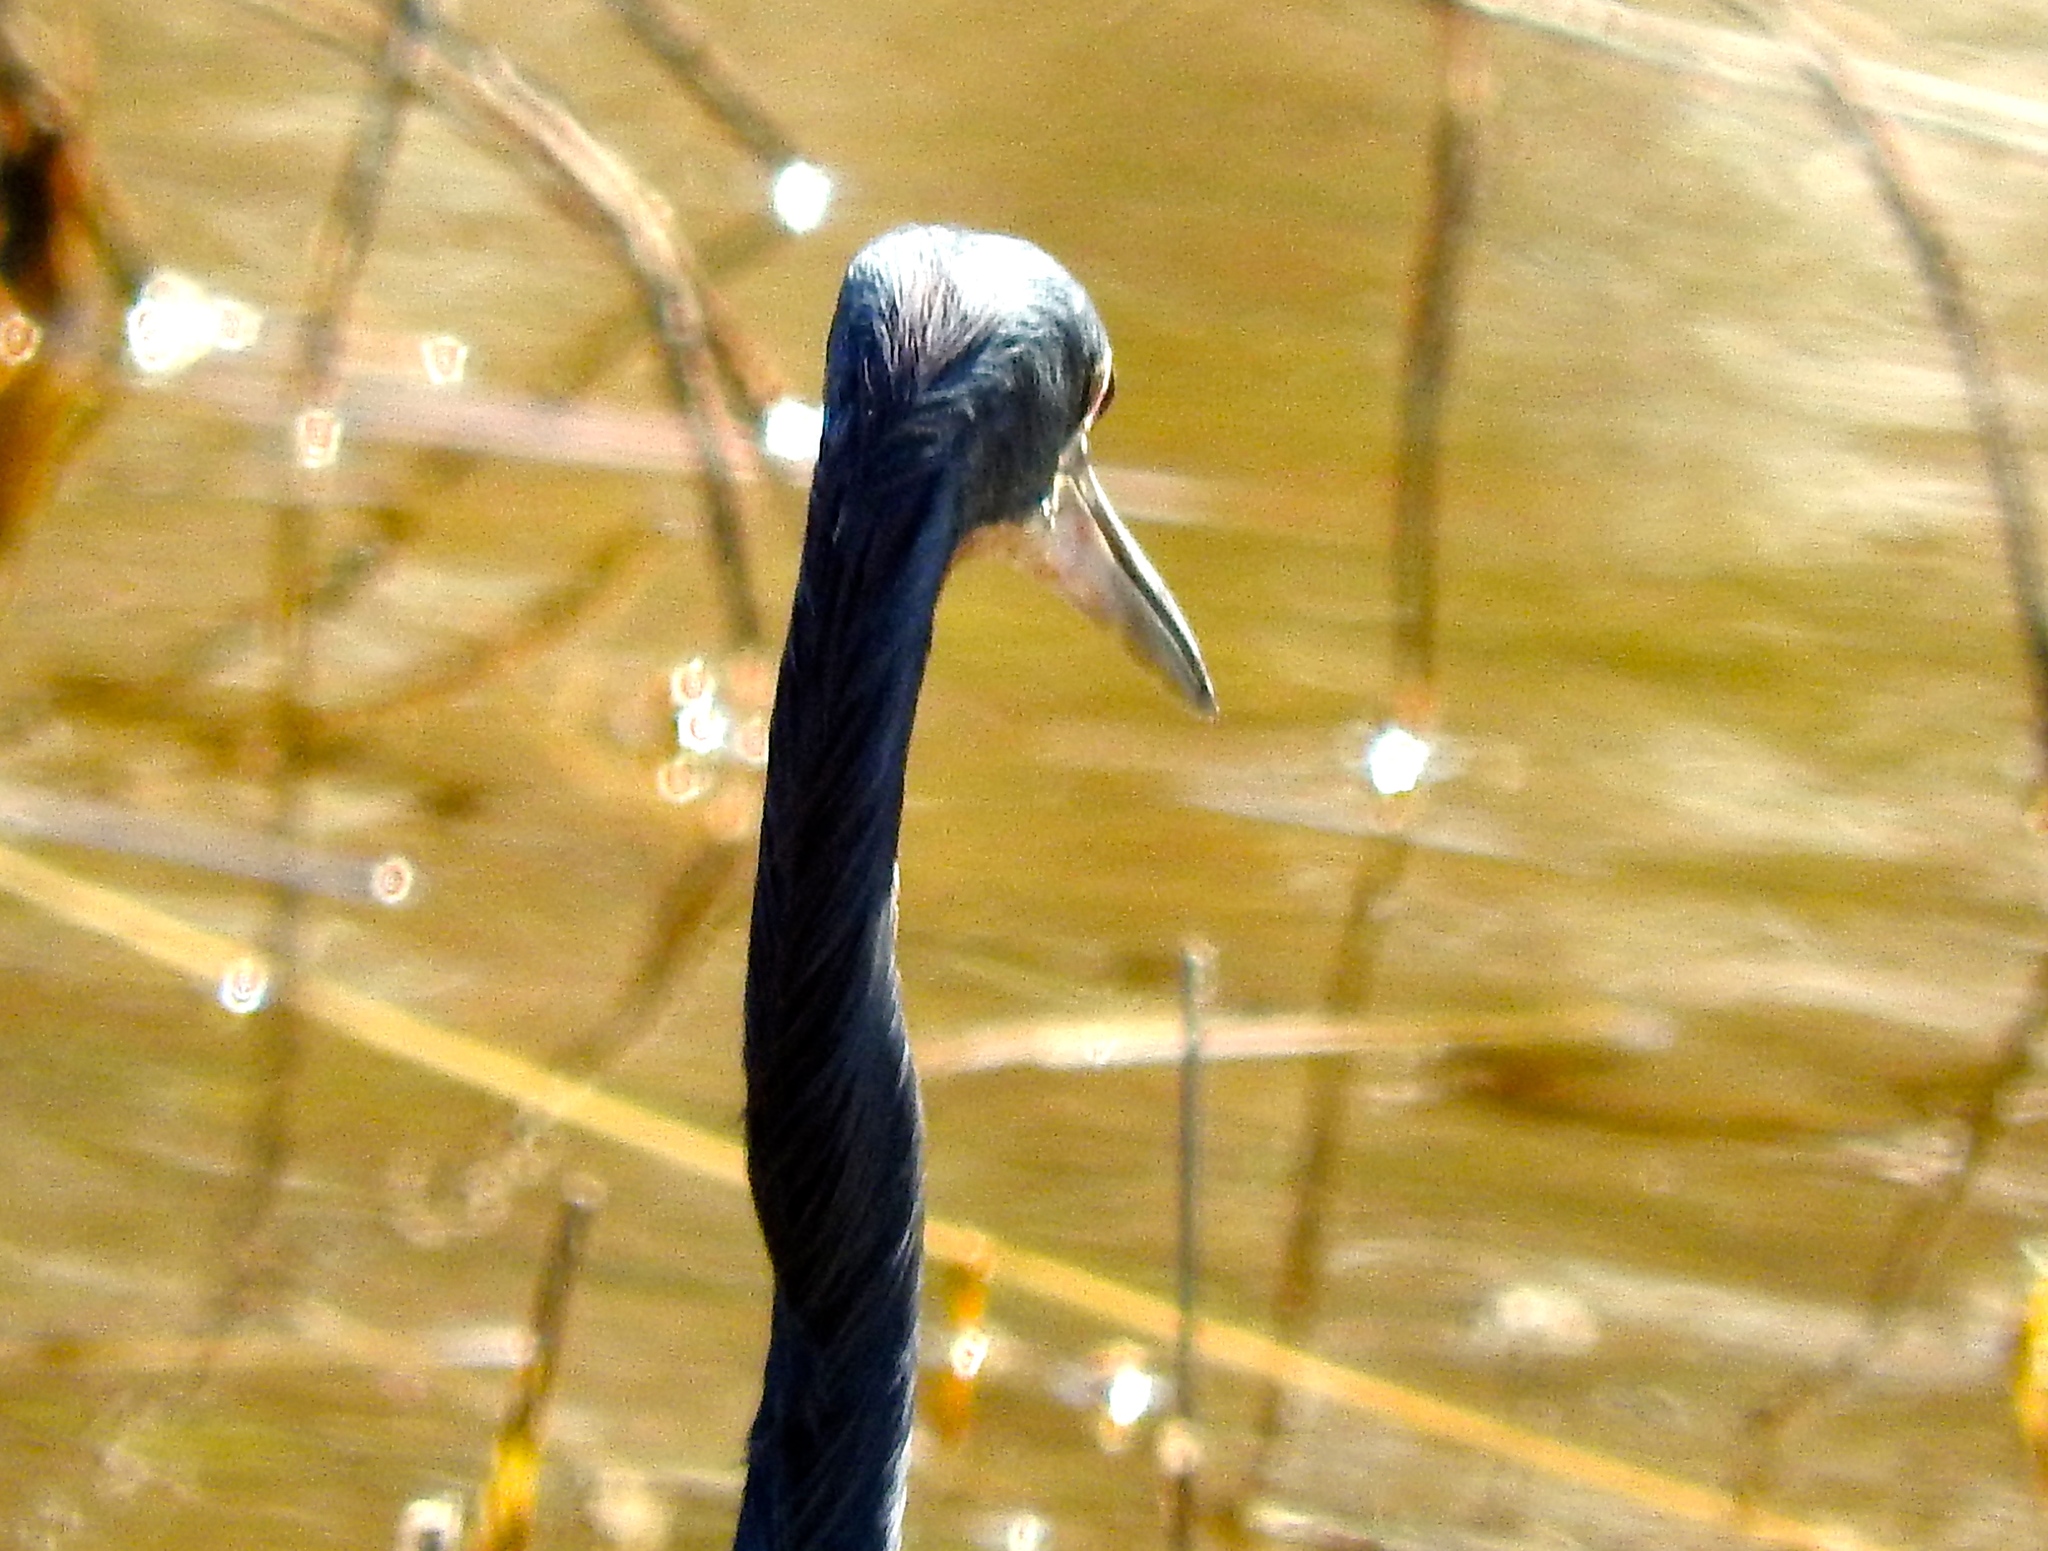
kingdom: Animalia
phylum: Chordata
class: Aves
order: Pelecaniformes
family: Ardeidae
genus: Egretta
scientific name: Egretta tricolor
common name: Tricolored heron
